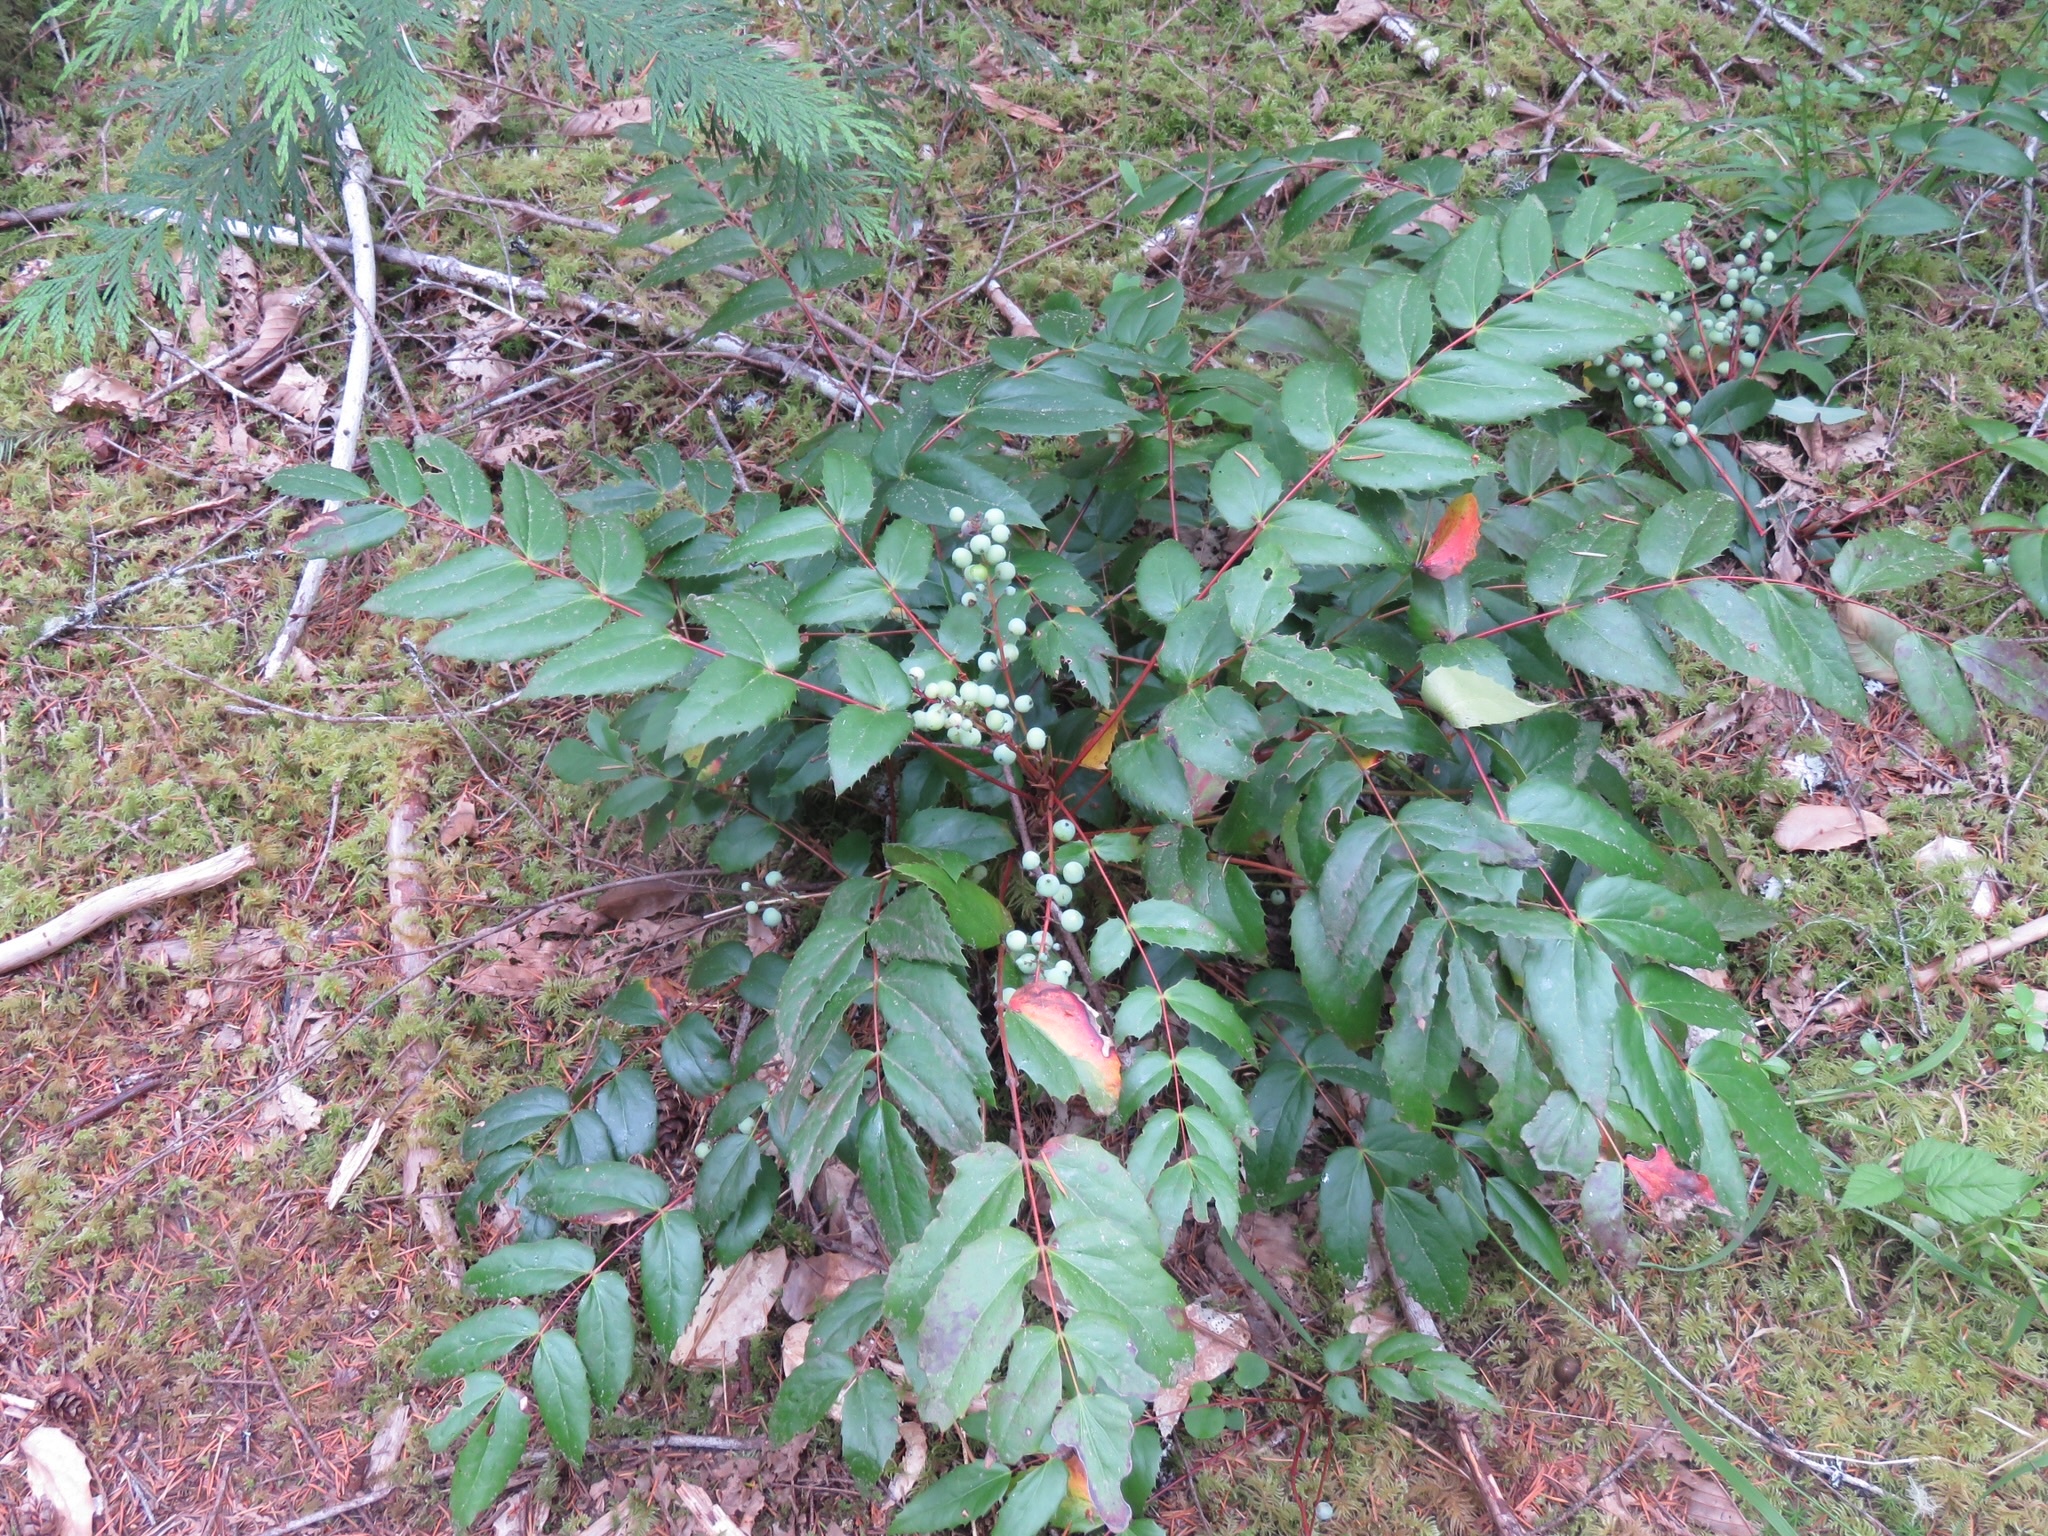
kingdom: Plantae
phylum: Tracheophyta
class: Magnoliopsida
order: Ranunculales
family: Berberidaceae
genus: Mahonia
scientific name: Mahonia nervosa
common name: Cascade oregon-grape
